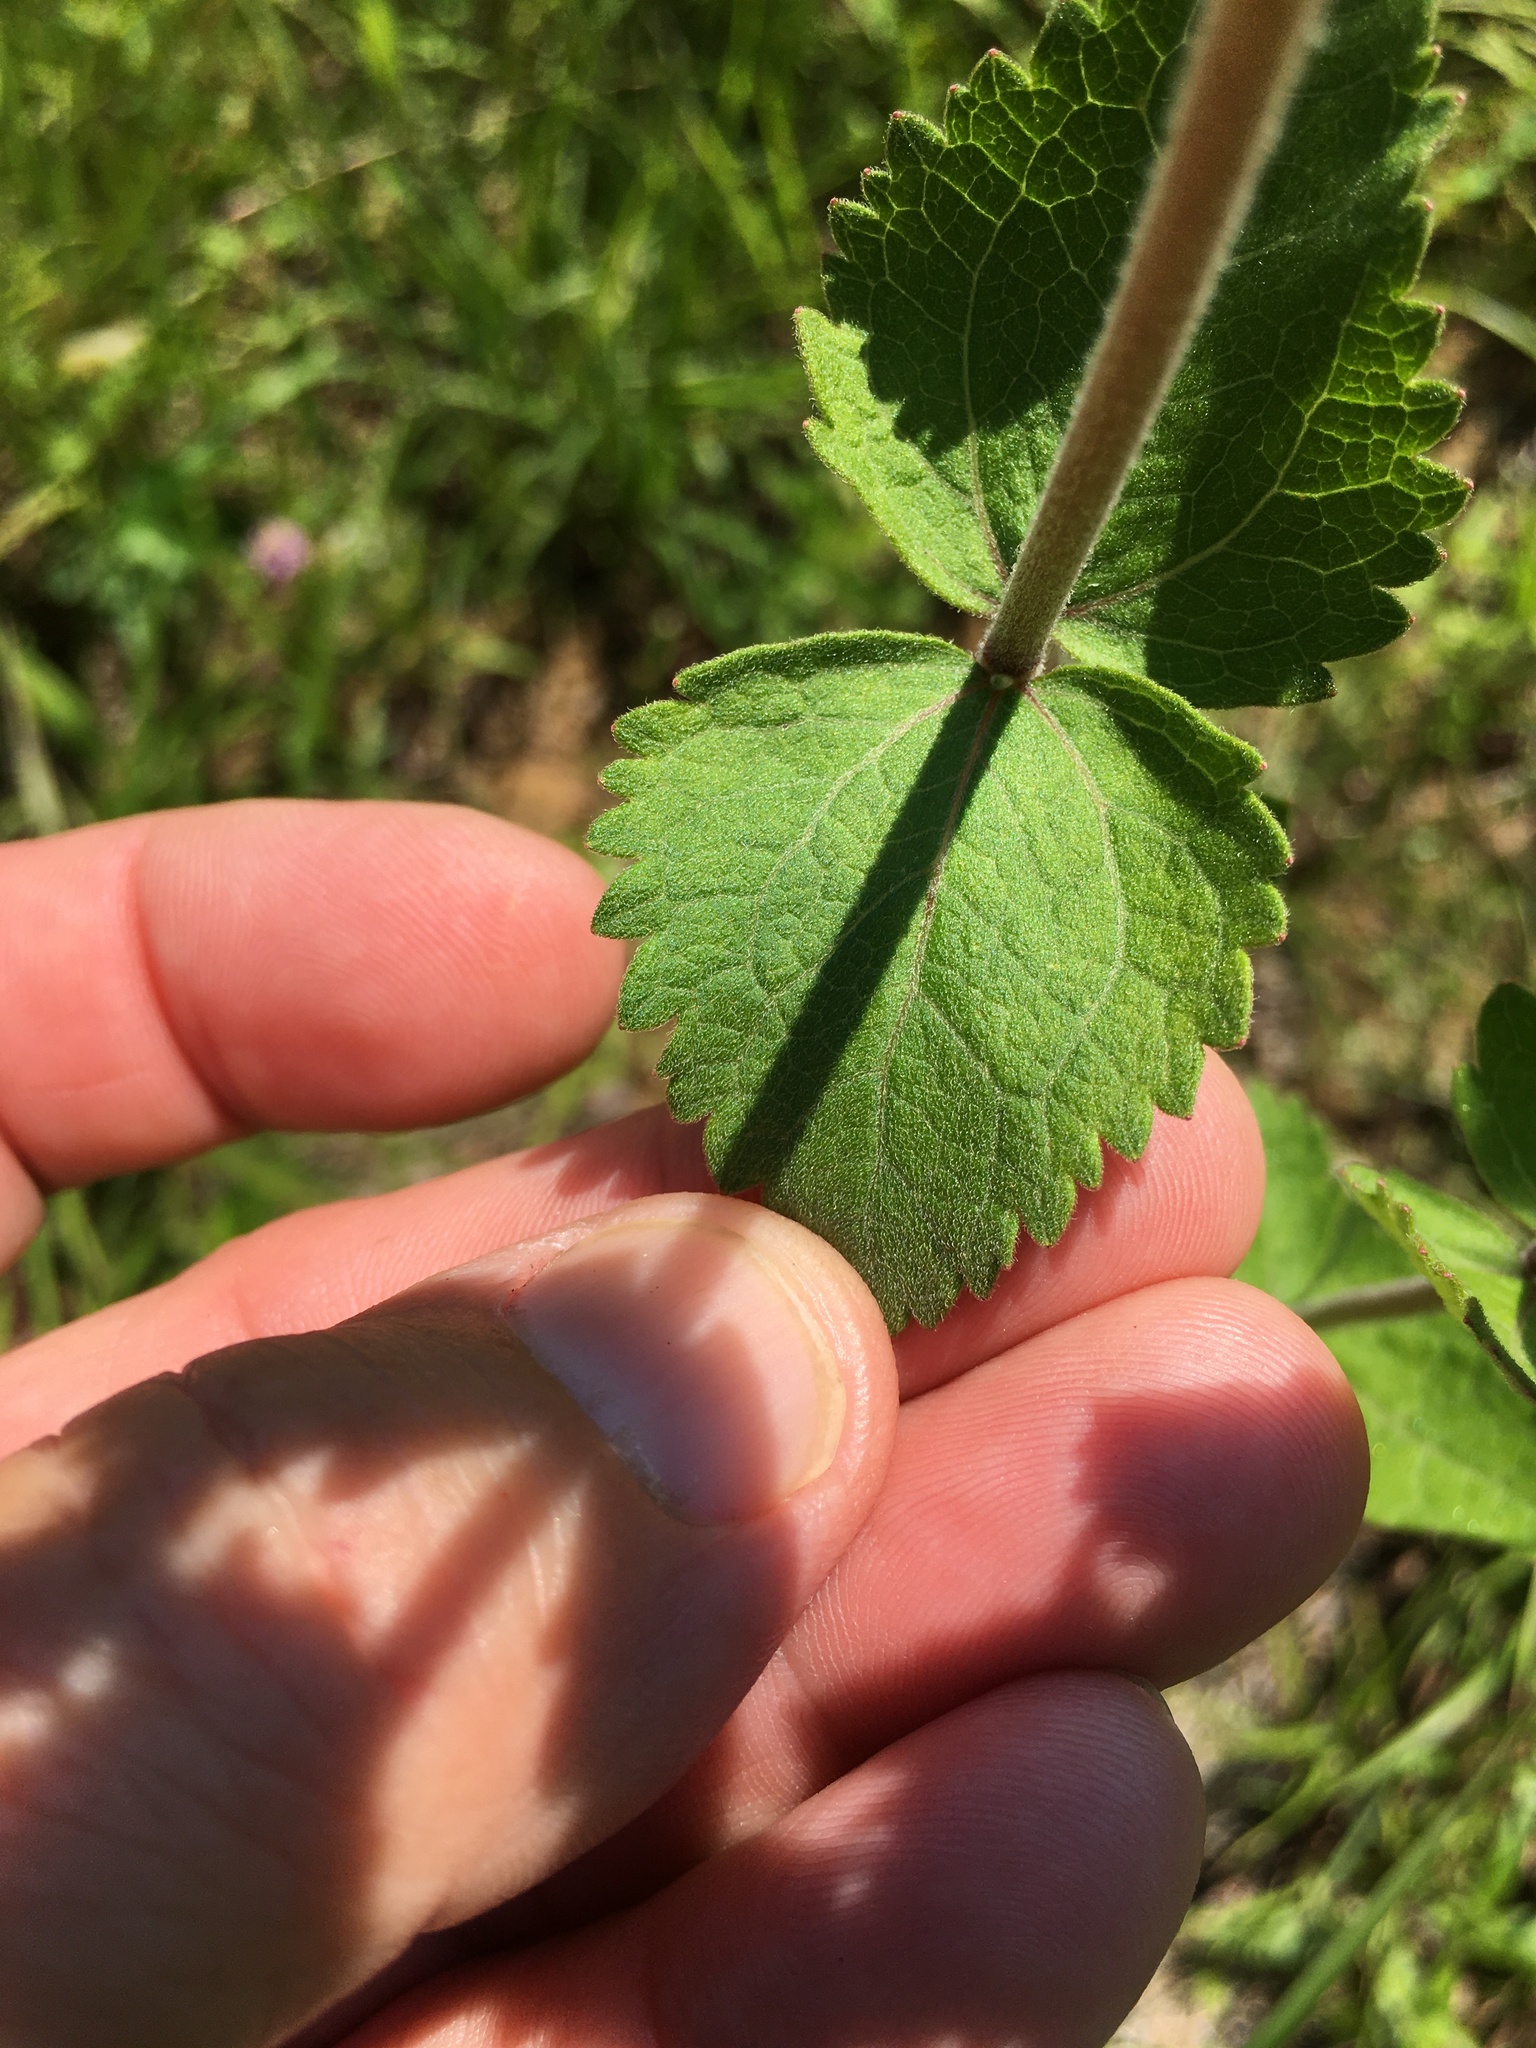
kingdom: Plantae
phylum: Tracheophyta
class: Magnoliopsida
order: Asterales
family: Asteraceae
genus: Eupatorium
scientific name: Eupatorium rotundifolium
